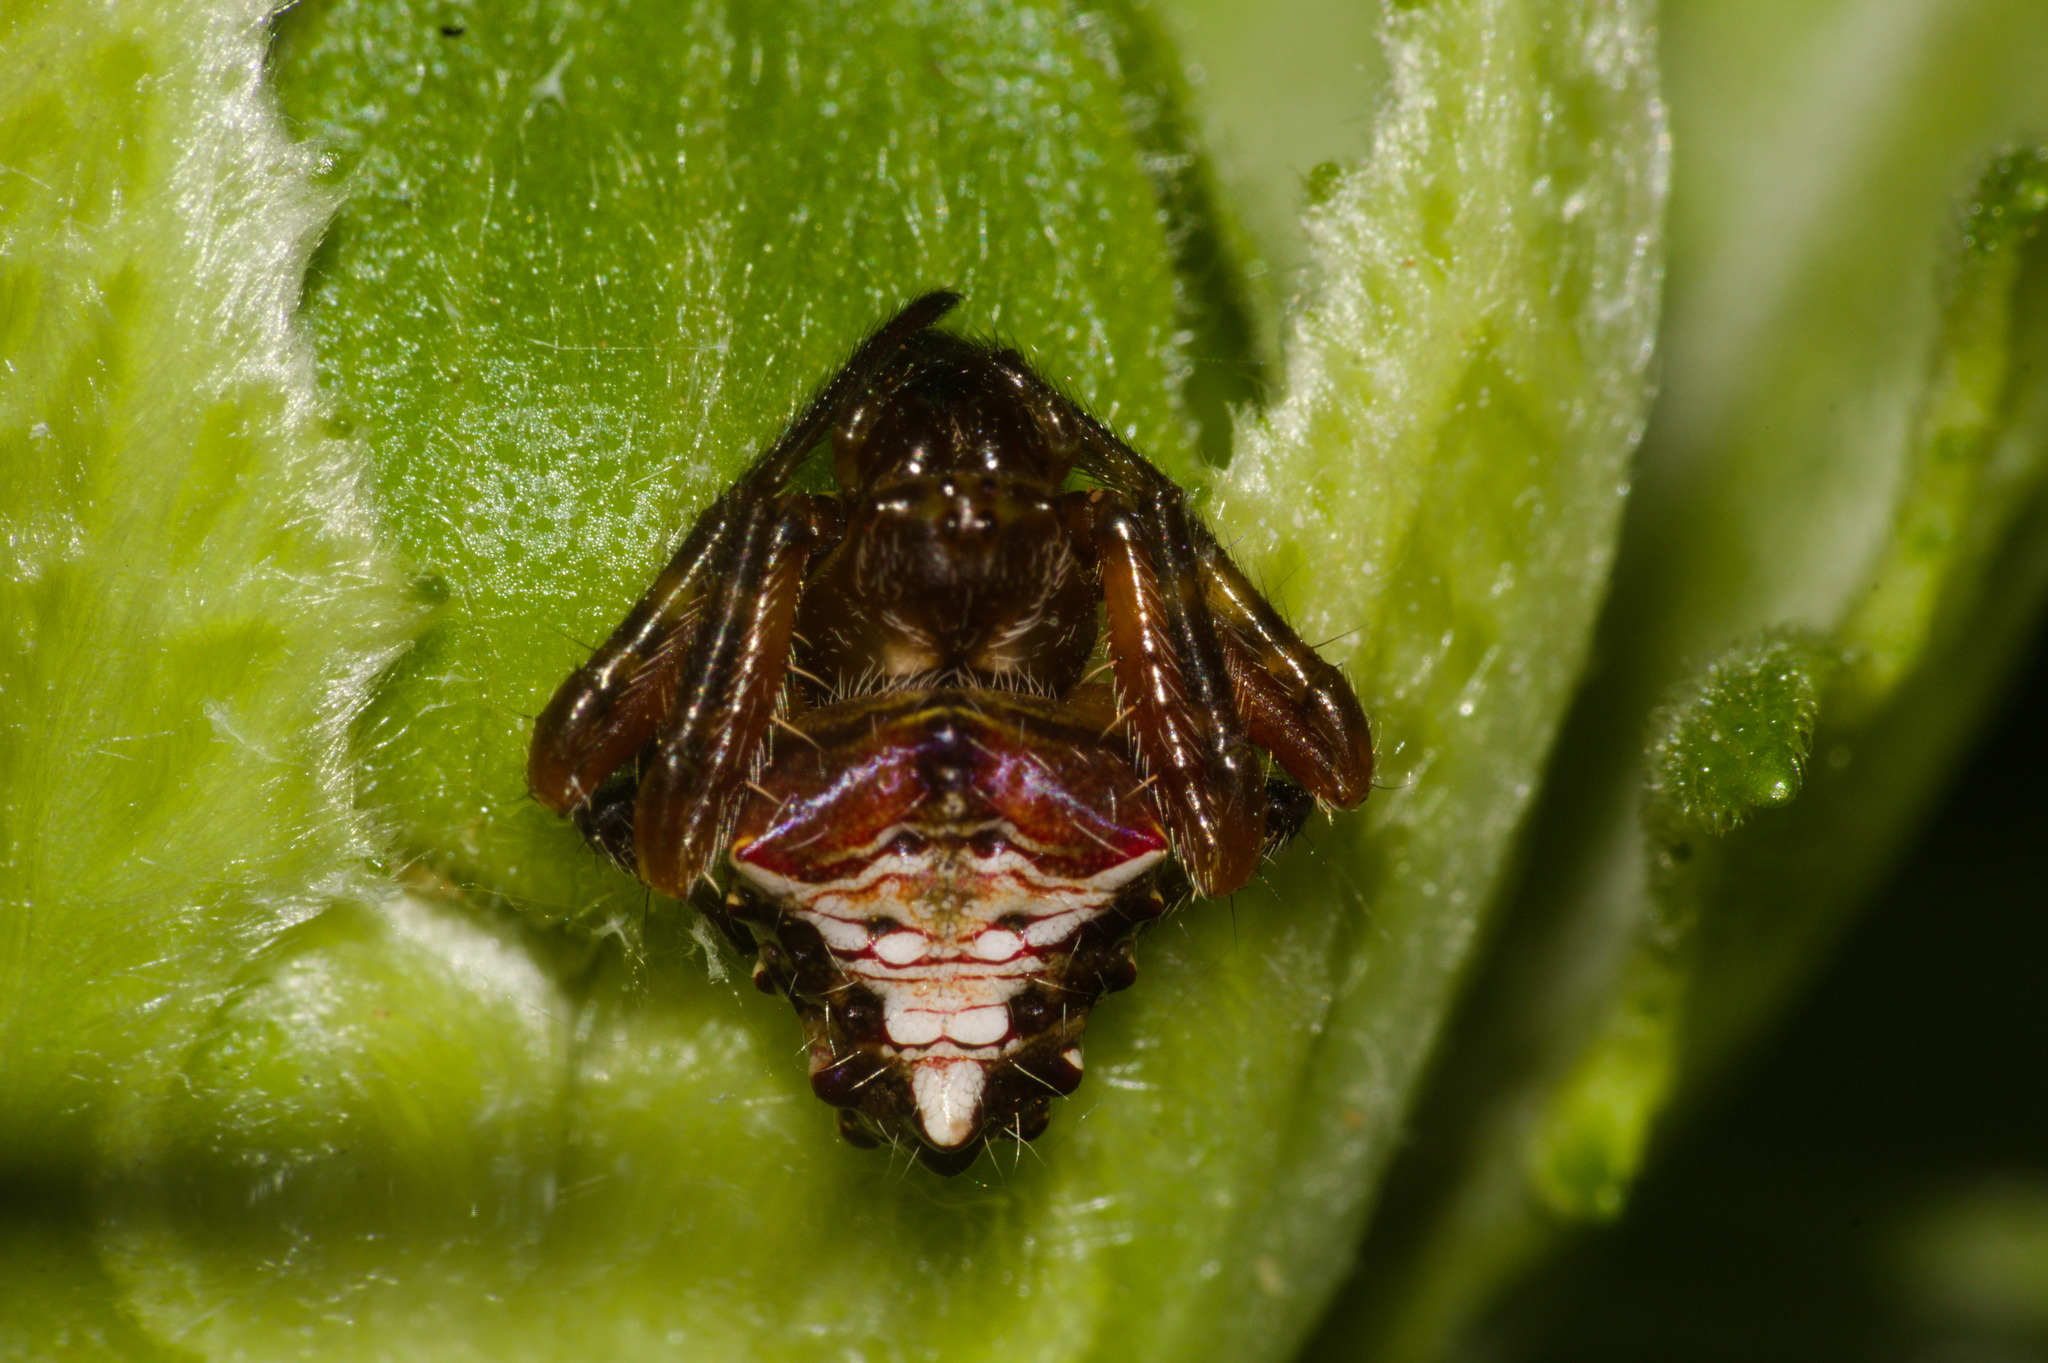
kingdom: Animalia
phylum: Arthropoda
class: Arachnida
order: Araneae
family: Araneidae
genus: Verrucosa
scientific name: Verrucosa meridionalis
